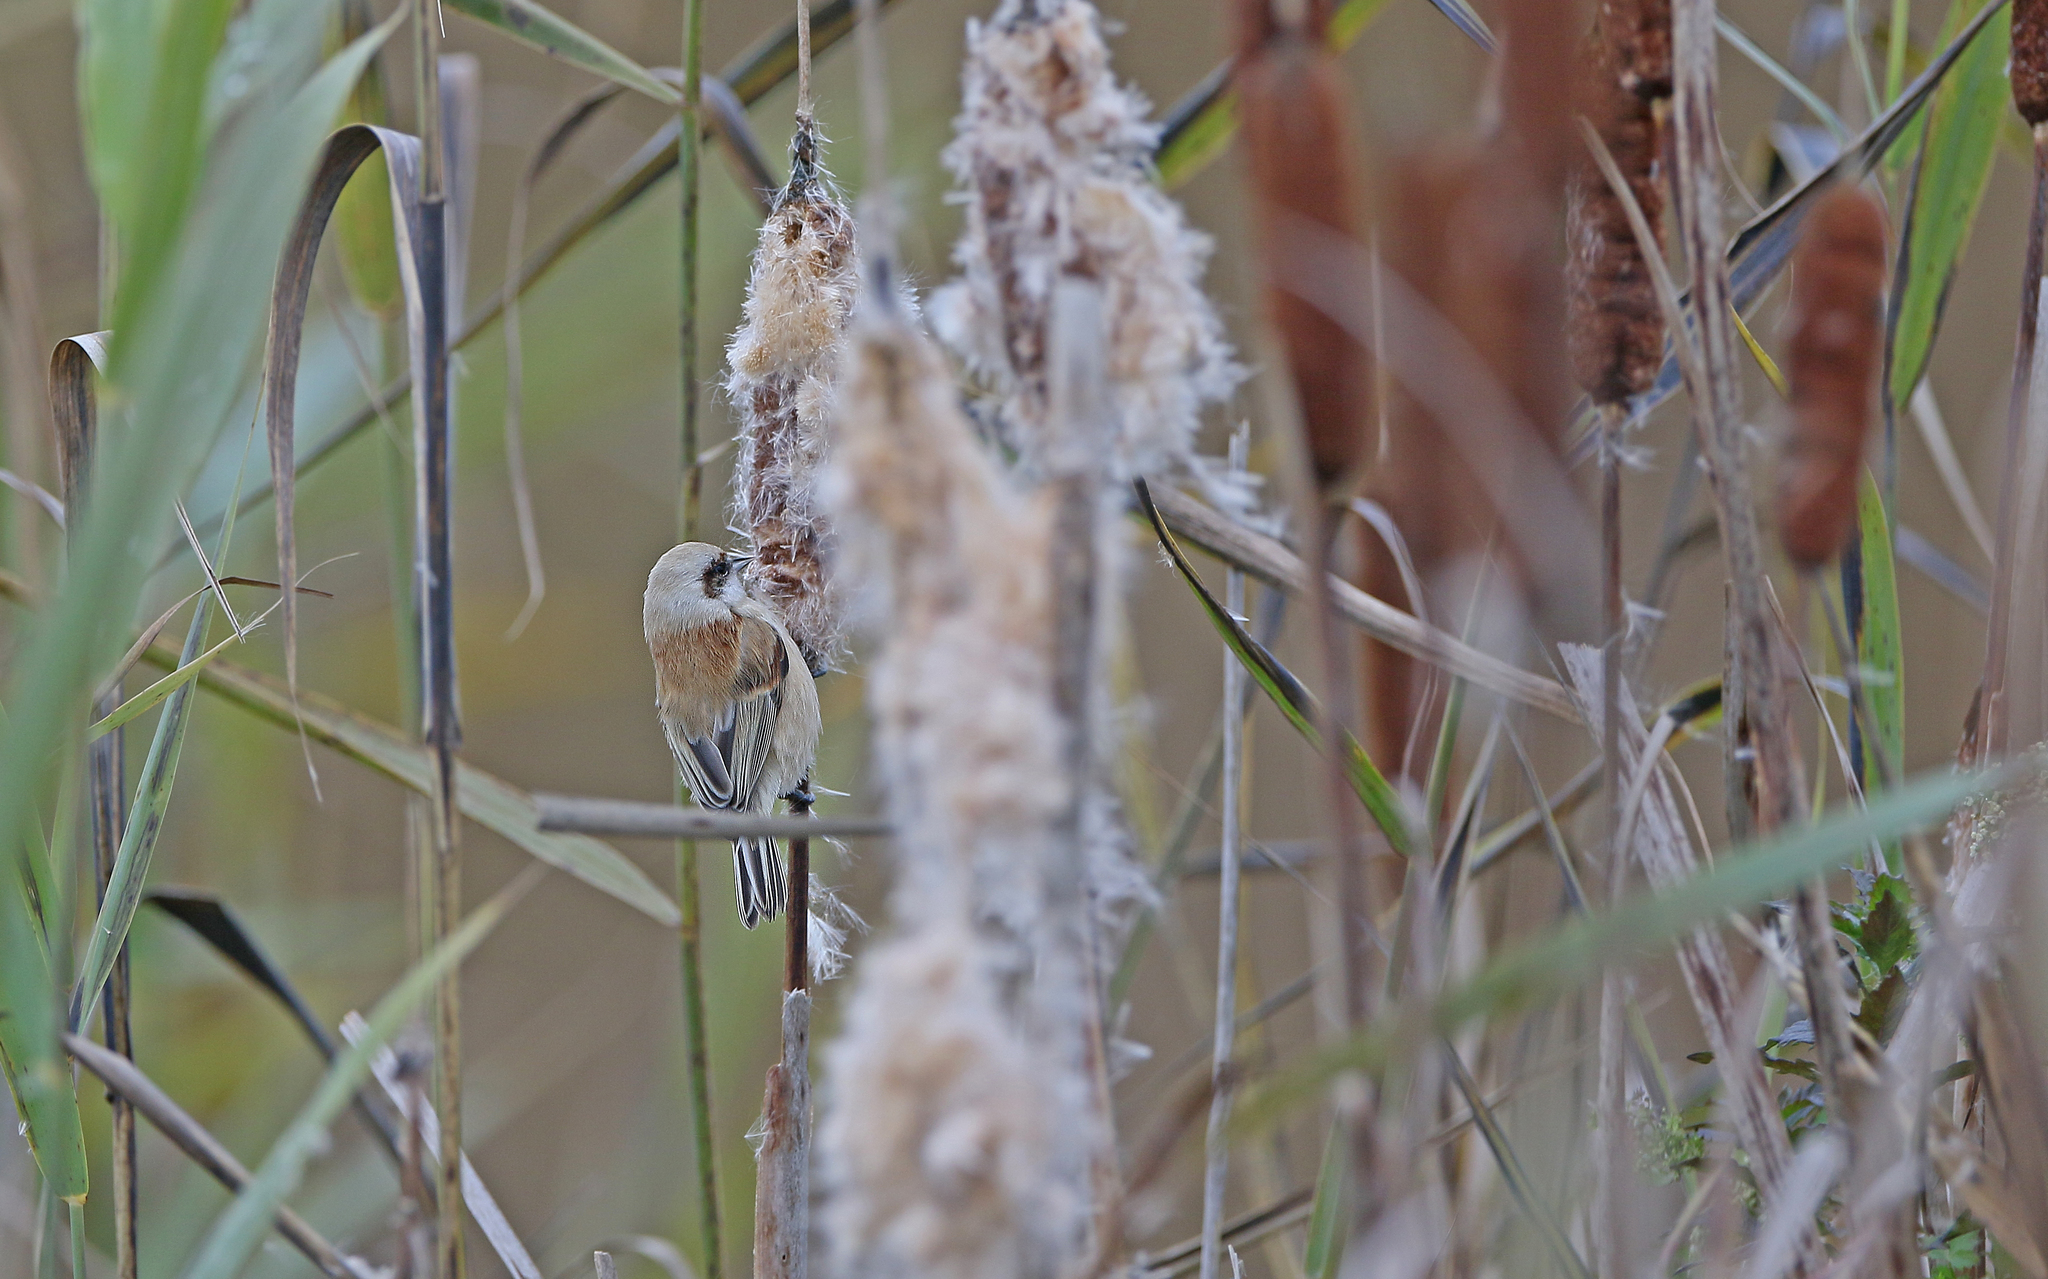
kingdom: Animalia
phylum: Chordata
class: Aves
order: Passeriformes
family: Remizidae
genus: Remiz
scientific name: Remiz pendulinus
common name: Eurasian penduline tit
